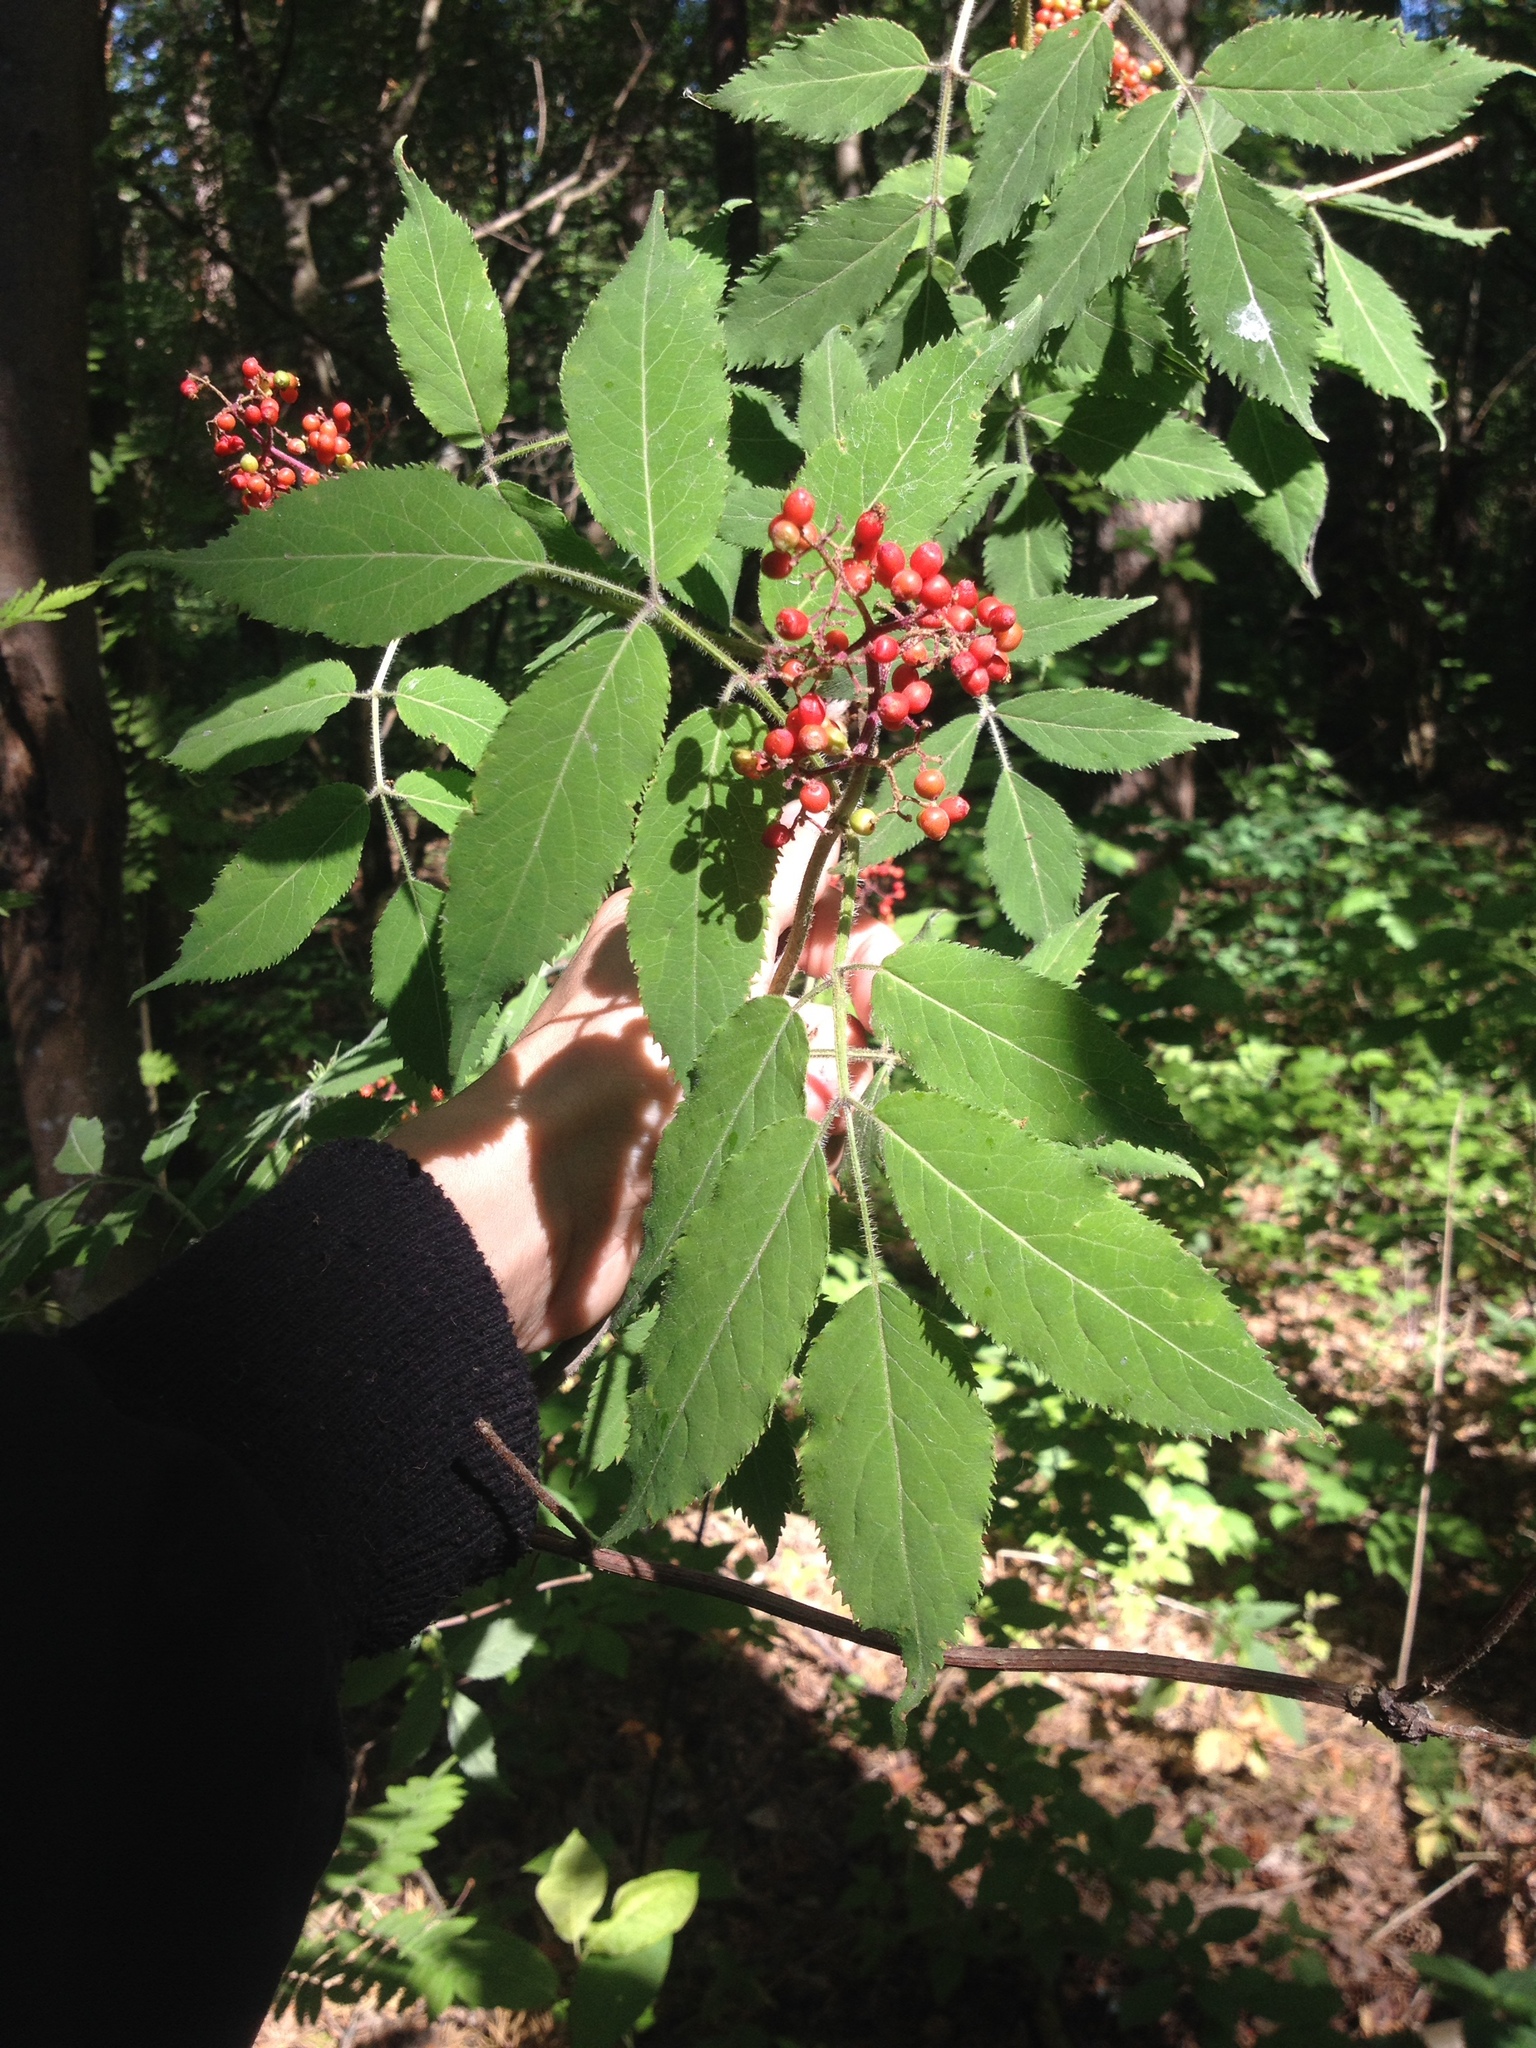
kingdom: Plantae
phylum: Tracheophyta
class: Magnoliopsida
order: Dipsacales
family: Viburnaceae
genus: Sambucus
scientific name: Sambucus racemosa
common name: Red-berried elder
